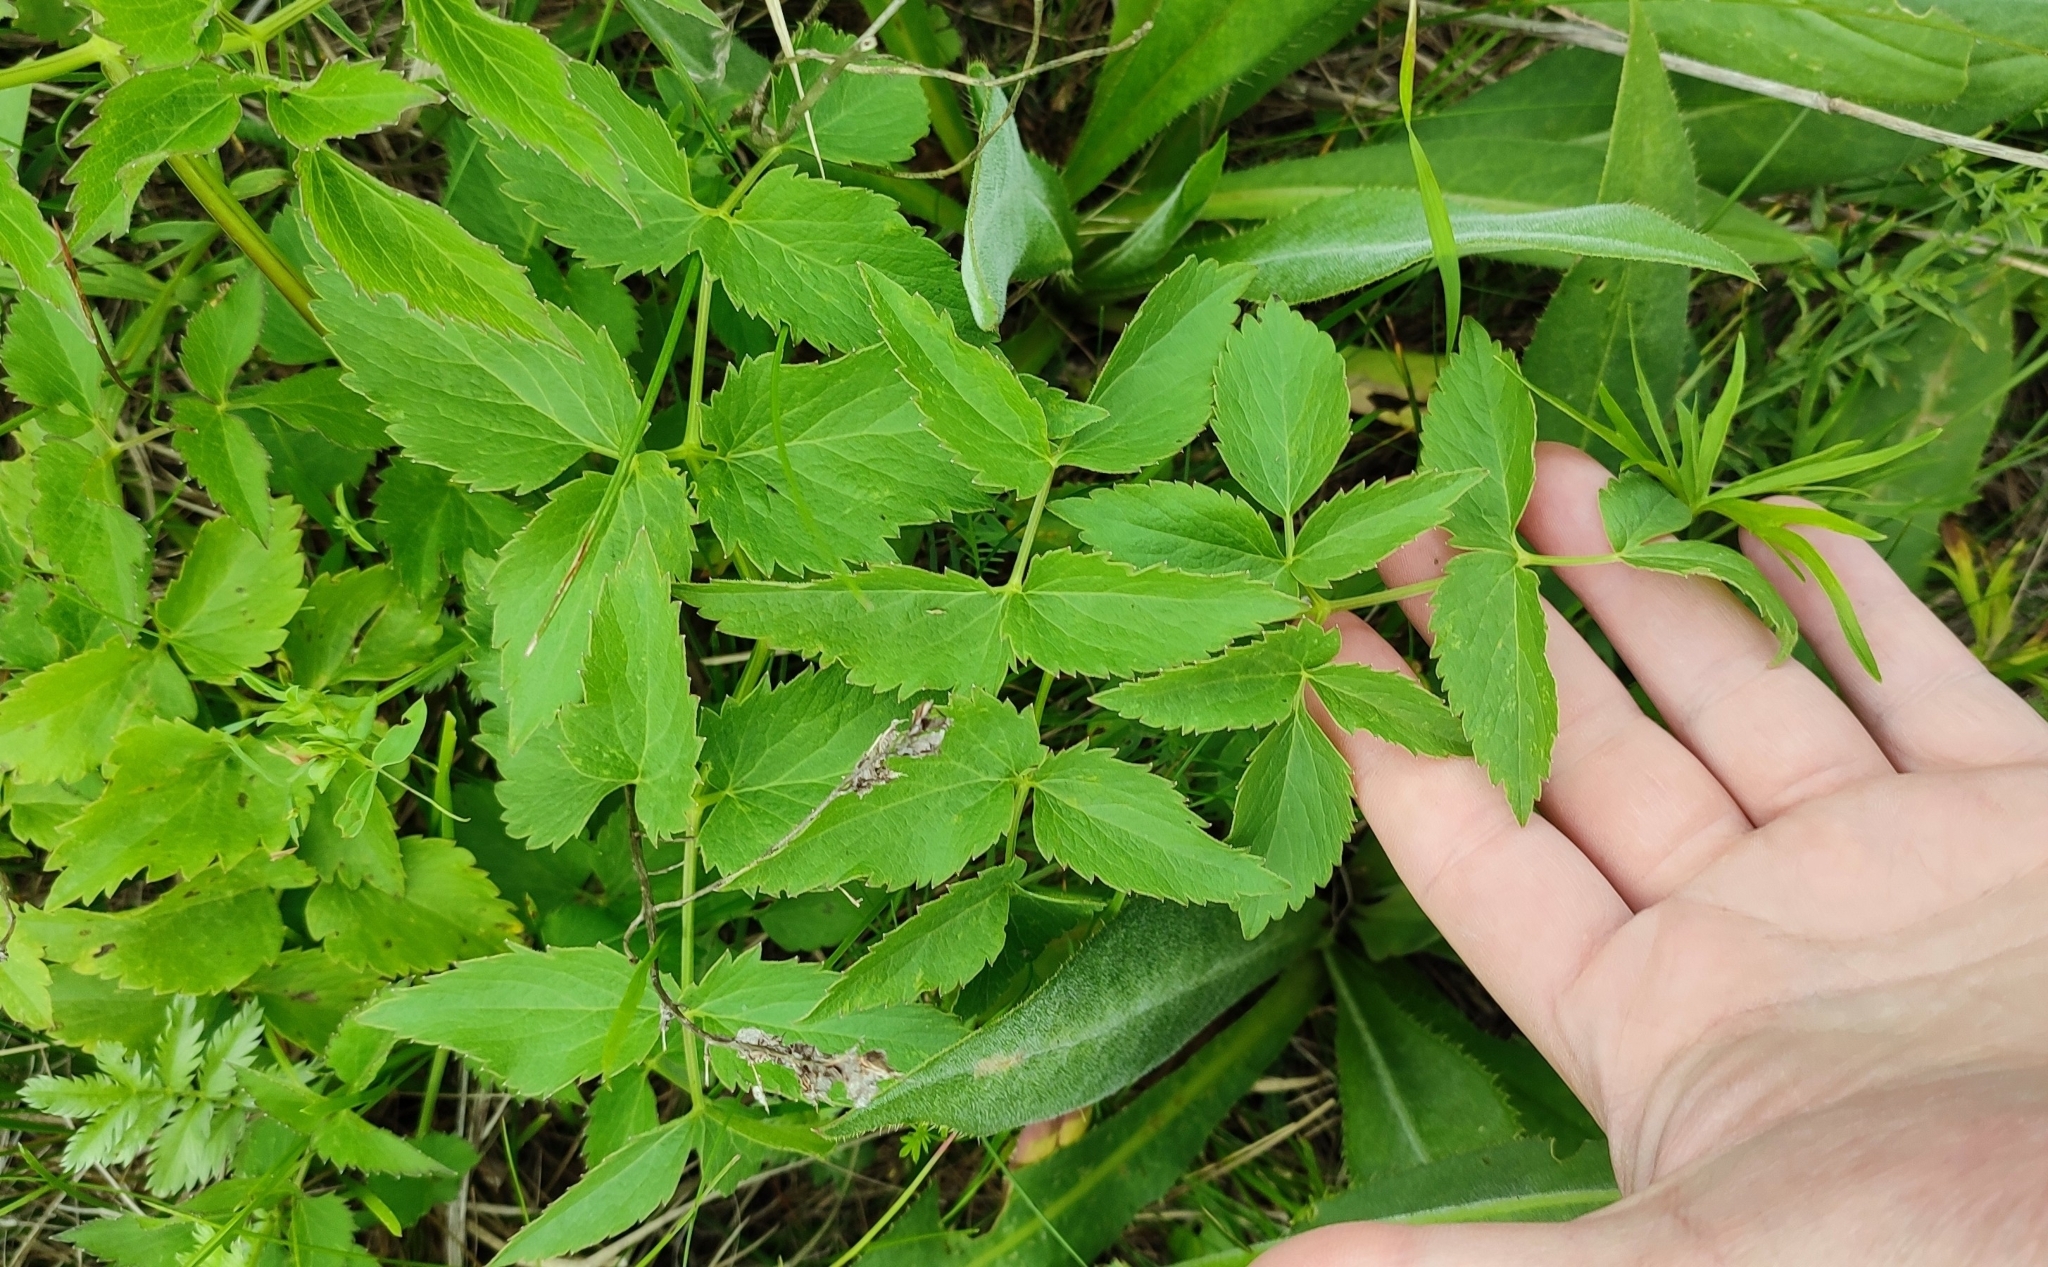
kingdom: Plantae
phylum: Tracheophyta
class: Magnoliopsida
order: Apiales
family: Apiaceae
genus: Ostericum
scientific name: Ostericum palustre
